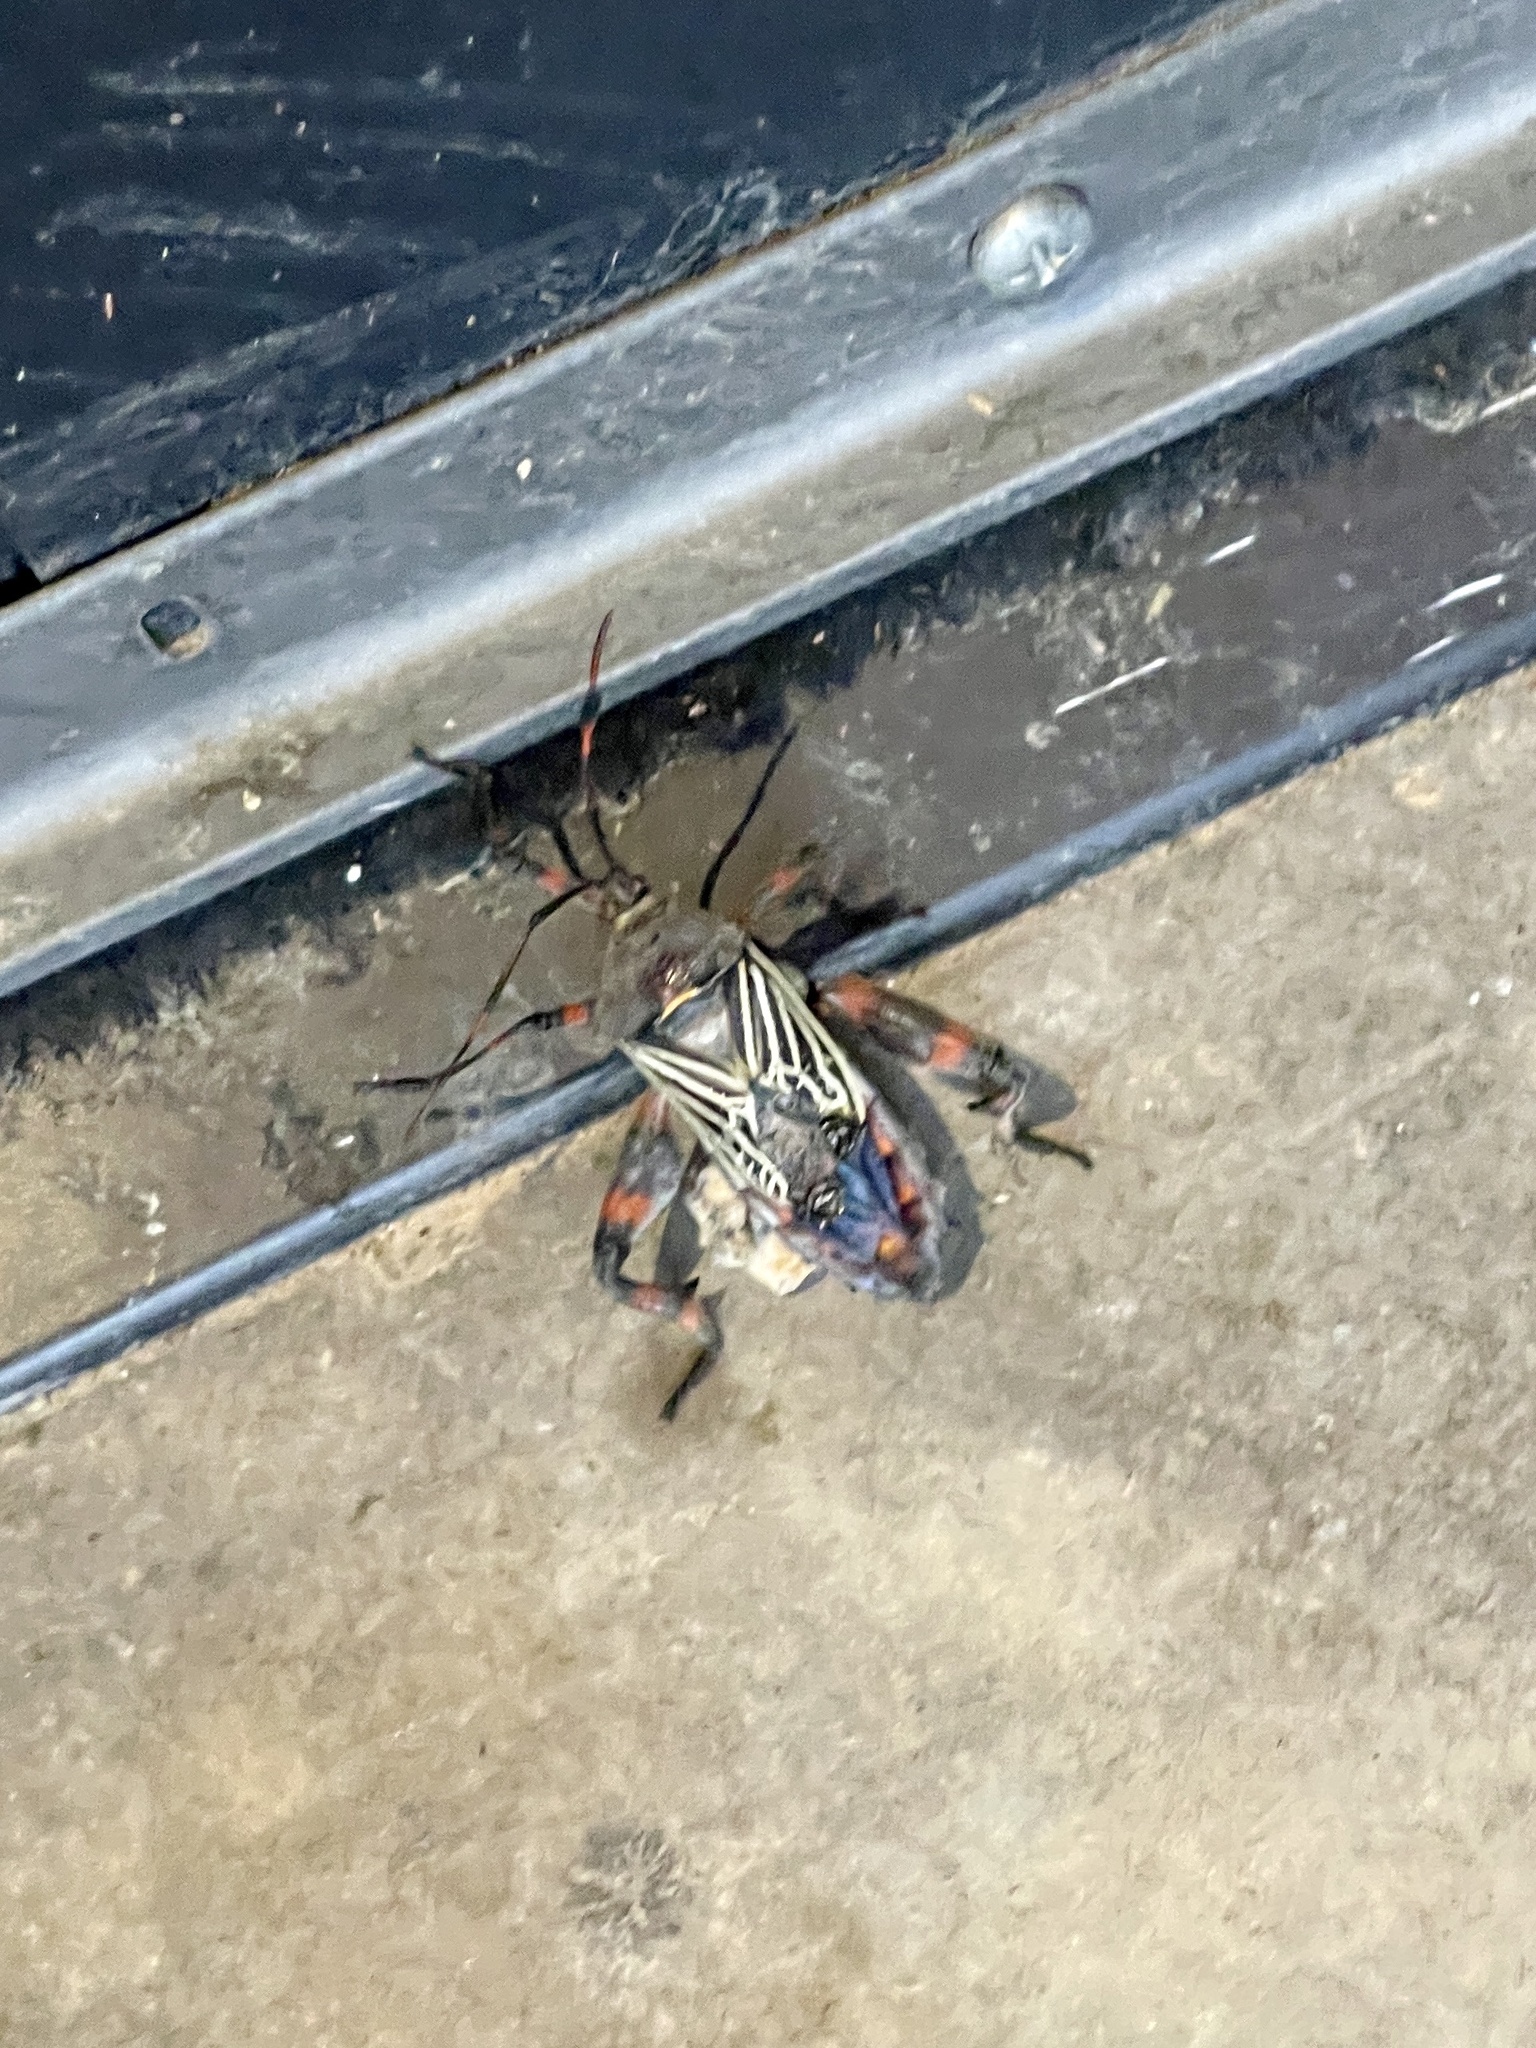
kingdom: Animalia
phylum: Arthropoda
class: Insecta
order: Hemiptera
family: Coreidae
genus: Thasus
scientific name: Thasus neocalifornicus
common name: Giant mesquite bug
